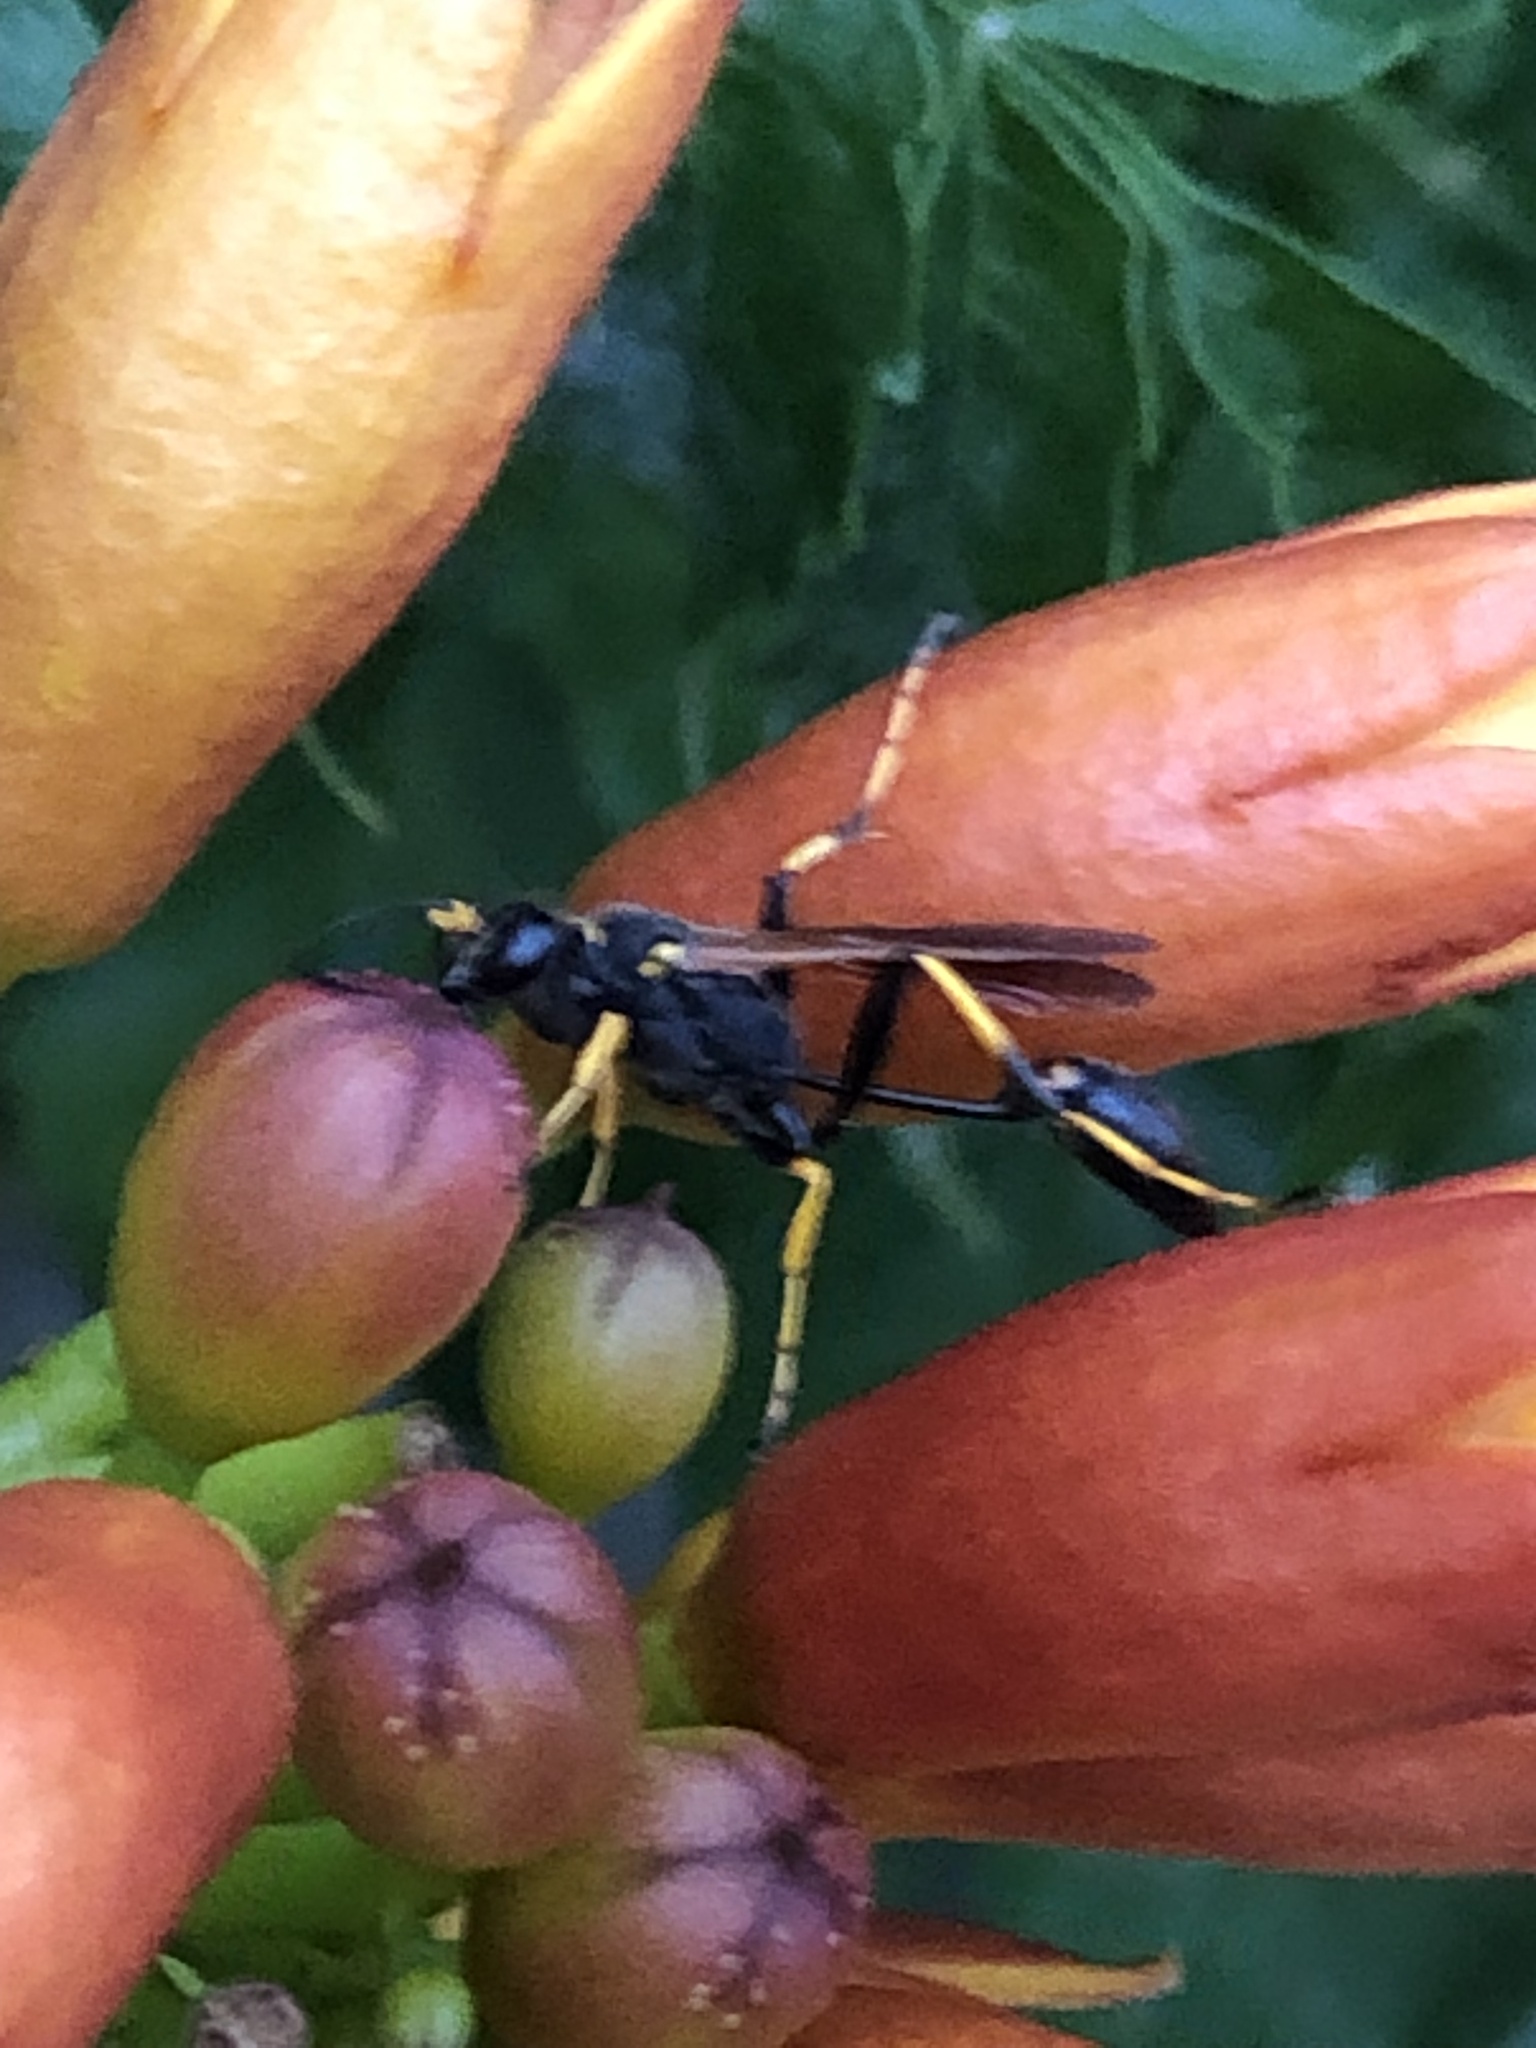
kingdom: Animalia
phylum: Arthropoda
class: Insecta
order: Hymenoptera
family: Sphecidae
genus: Sceliphron
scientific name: Sceliphron caementarium
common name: Mud dauber
